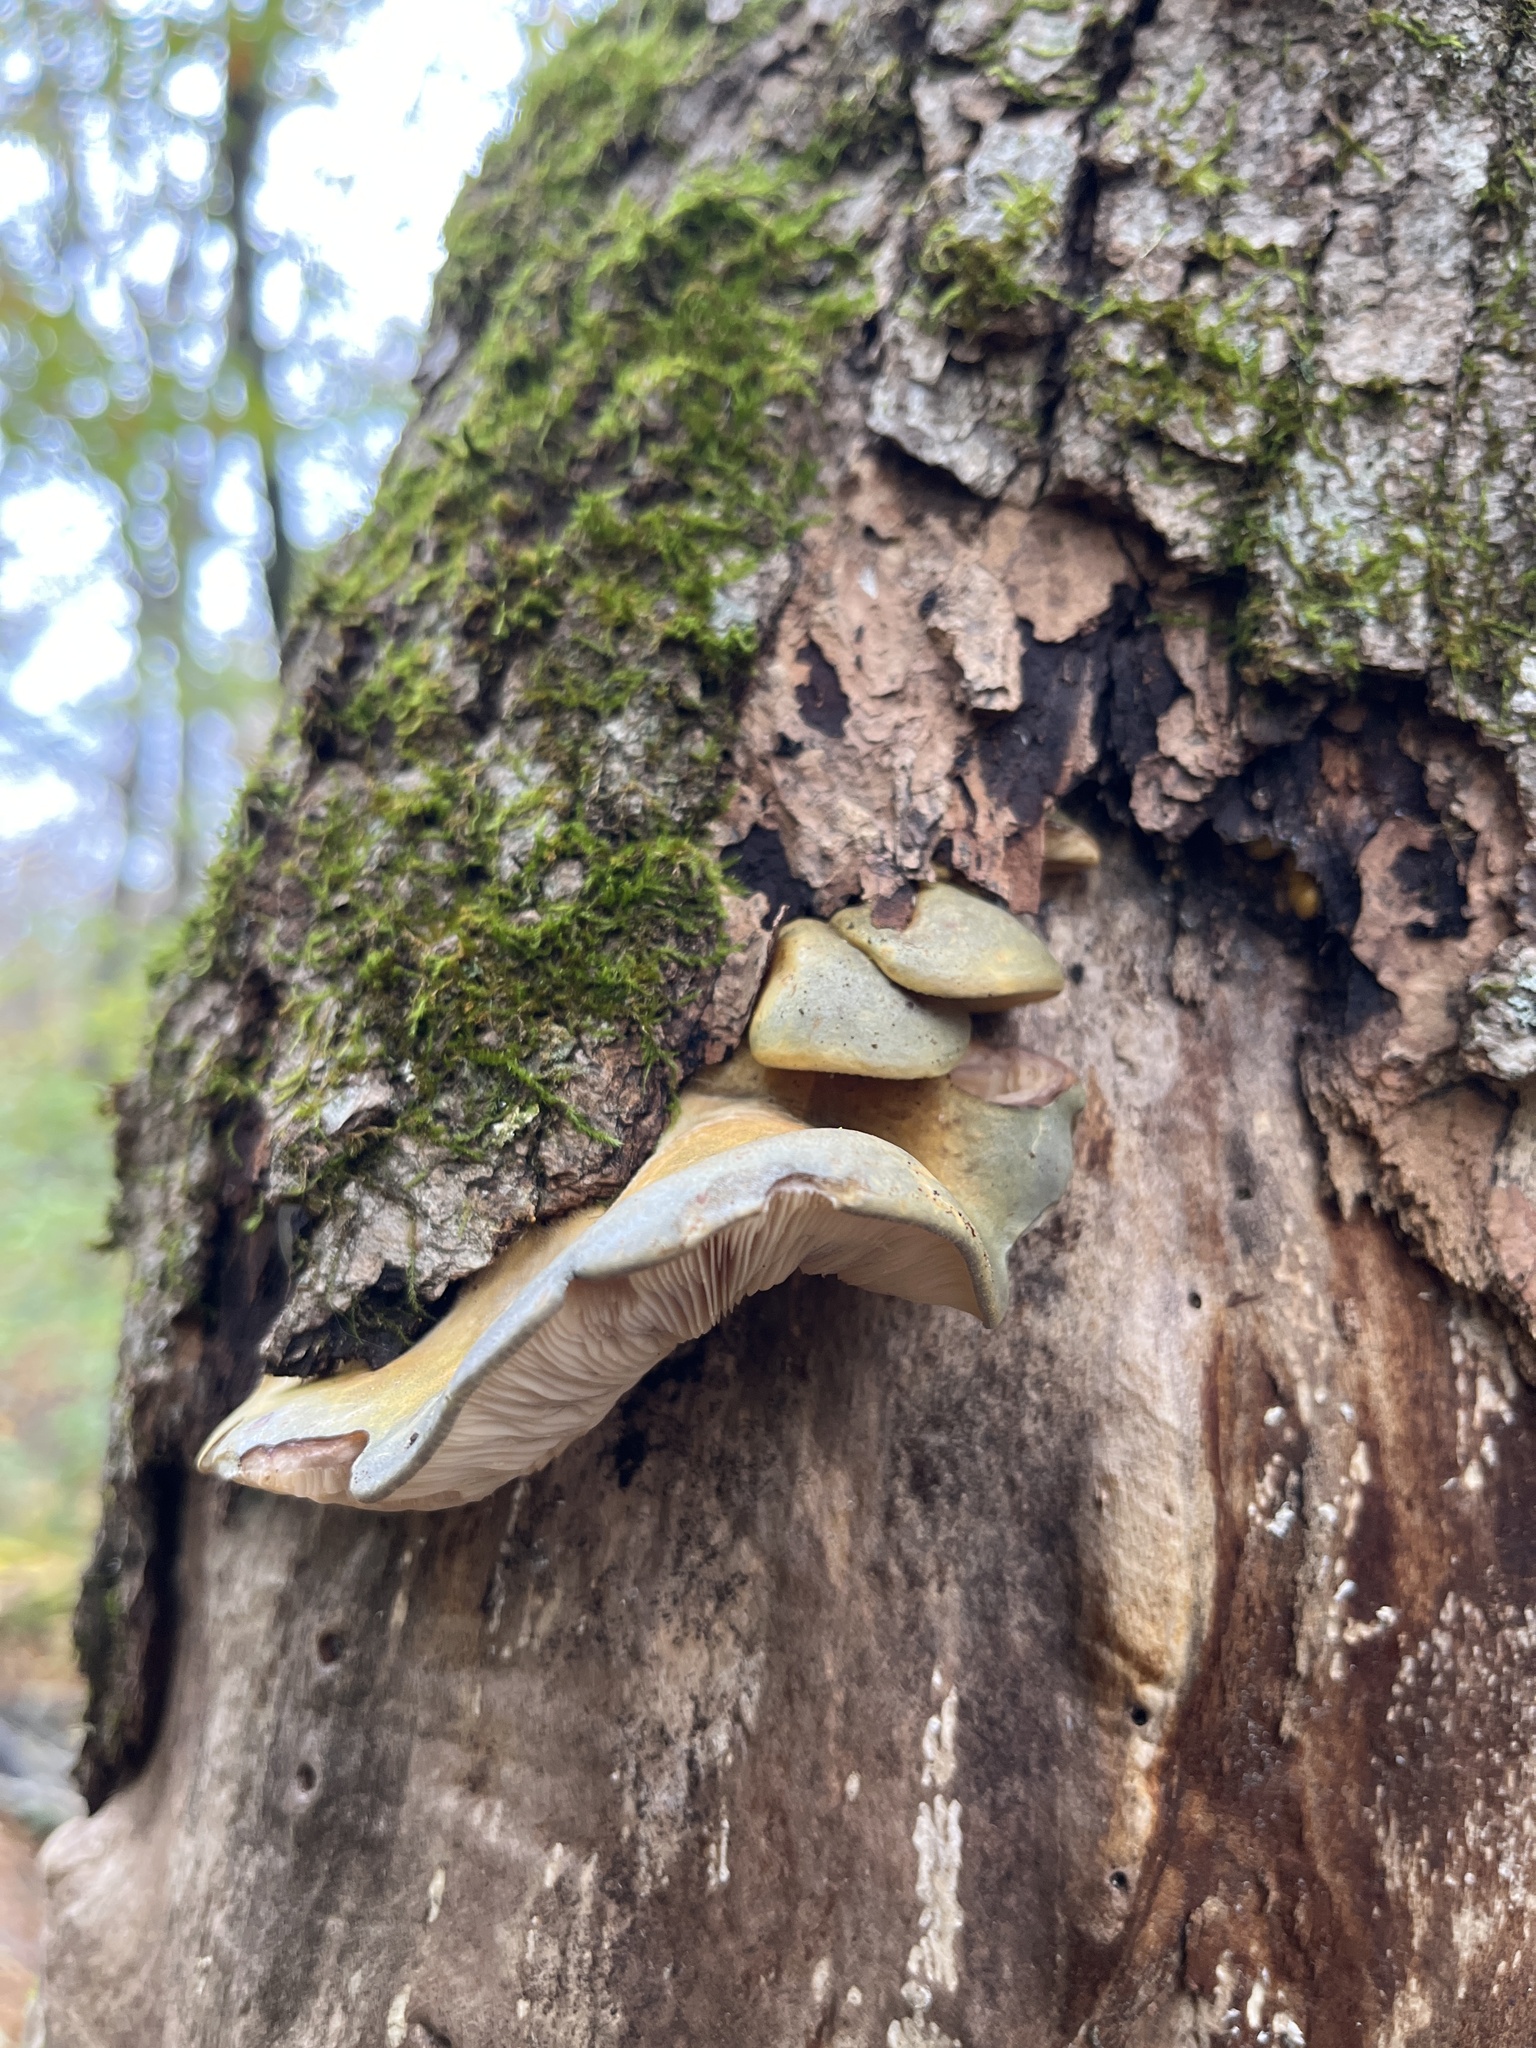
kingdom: Fungi
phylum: Basidiomycota
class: Agaricomycetes
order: Agaricales
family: Sarcomyxaceae
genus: Sarcomyxa
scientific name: Sarcomyxa serotina
